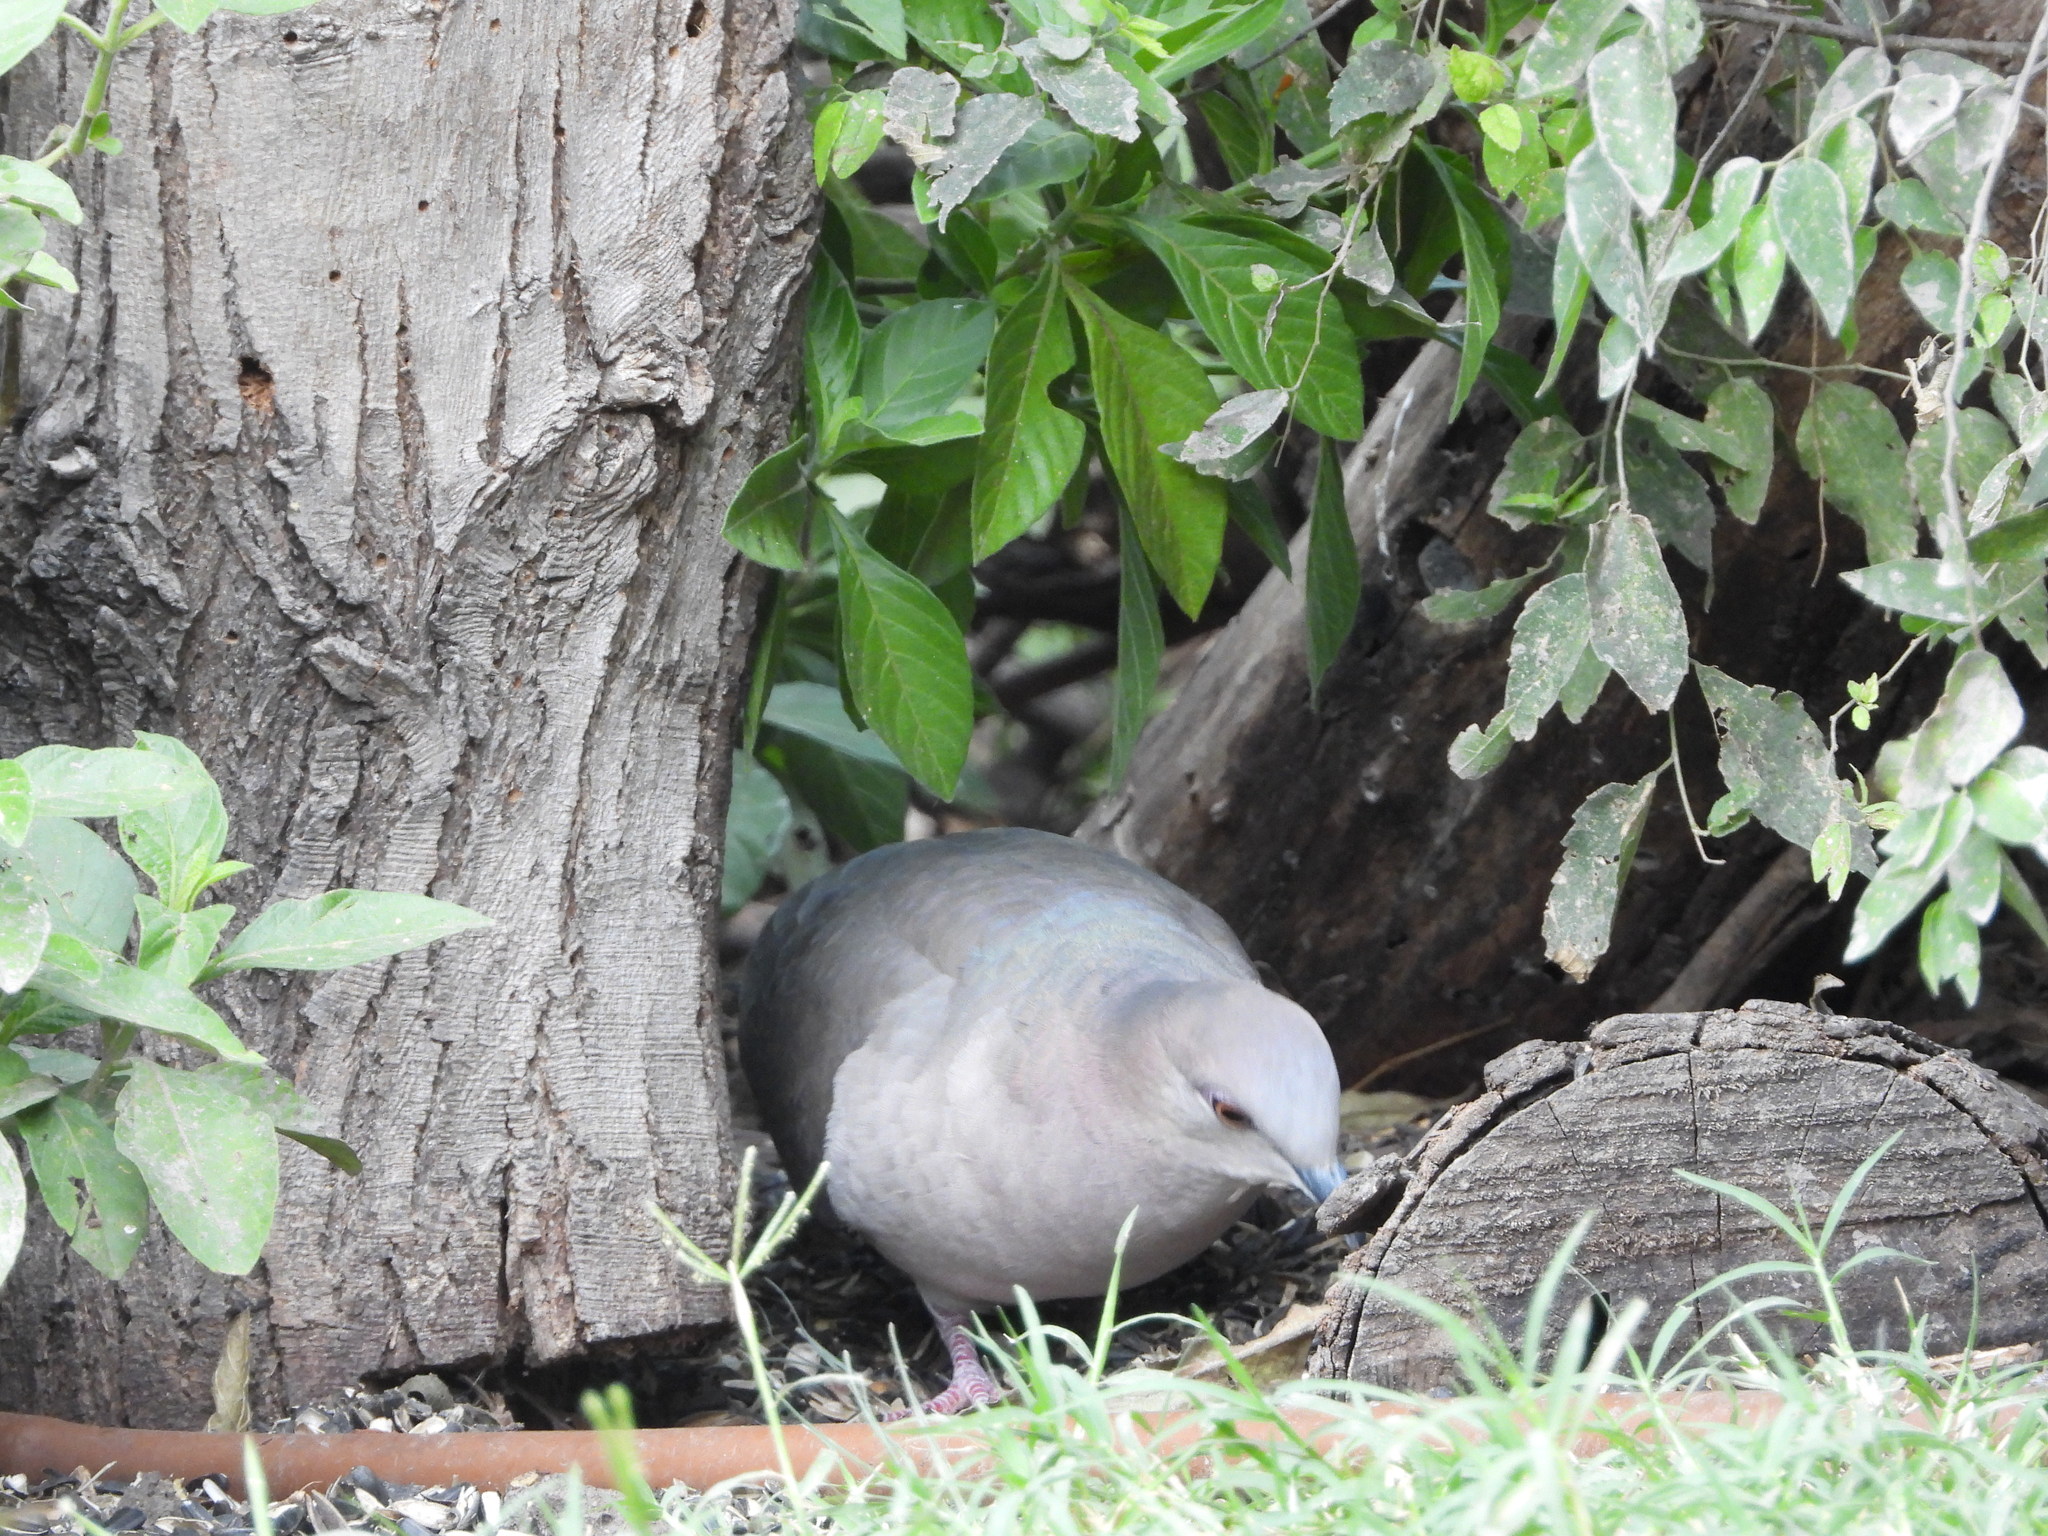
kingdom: Animalia
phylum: Chordata
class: Aves
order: Columbiformes
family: Columbidae
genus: Leptotila
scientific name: Leptotila verreauxi
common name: White-tipped dove
